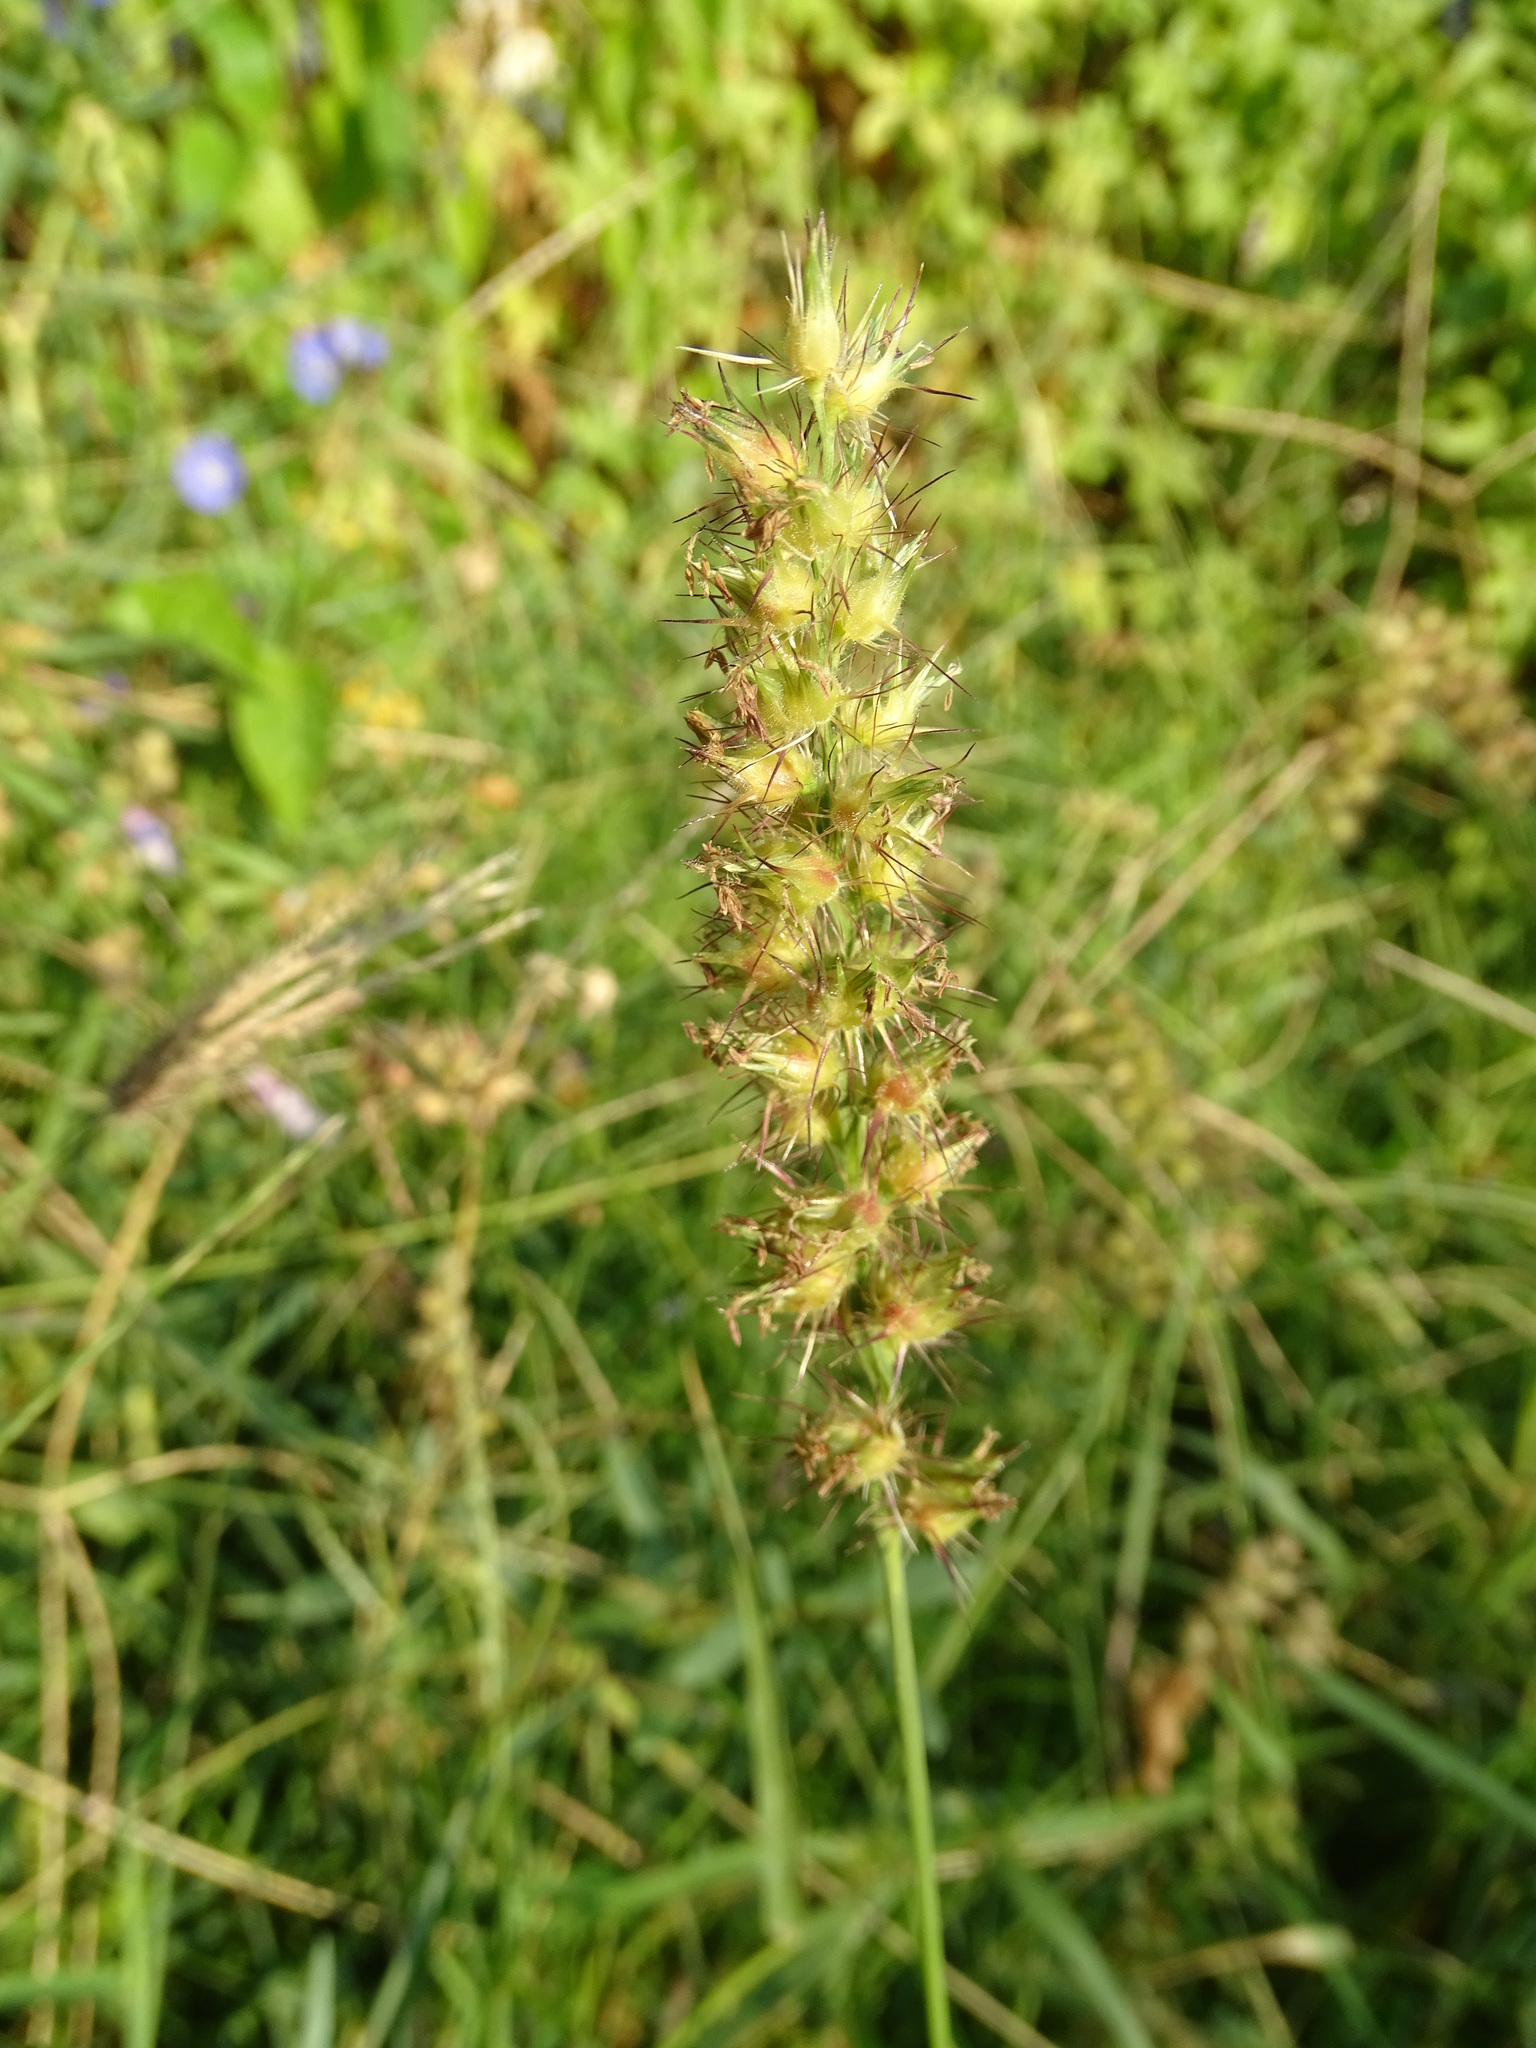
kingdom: Plantae
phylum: Tracheophyta
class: Liliopsida
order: Poales
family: Poaceae
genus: Cenchrus
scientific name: Cenchrus ciliaris
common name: Buffelgrass
